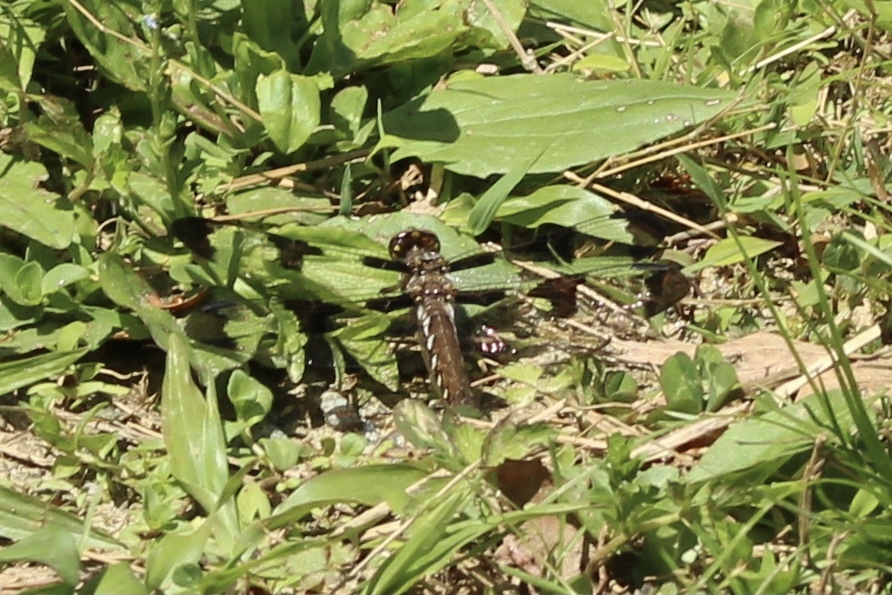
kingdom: Animalia
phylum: Arthropoda
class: Insecta
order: Odonata
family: Libellulidae
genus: Plathemis
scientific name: Plathemis lydia
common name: Common whitetail
